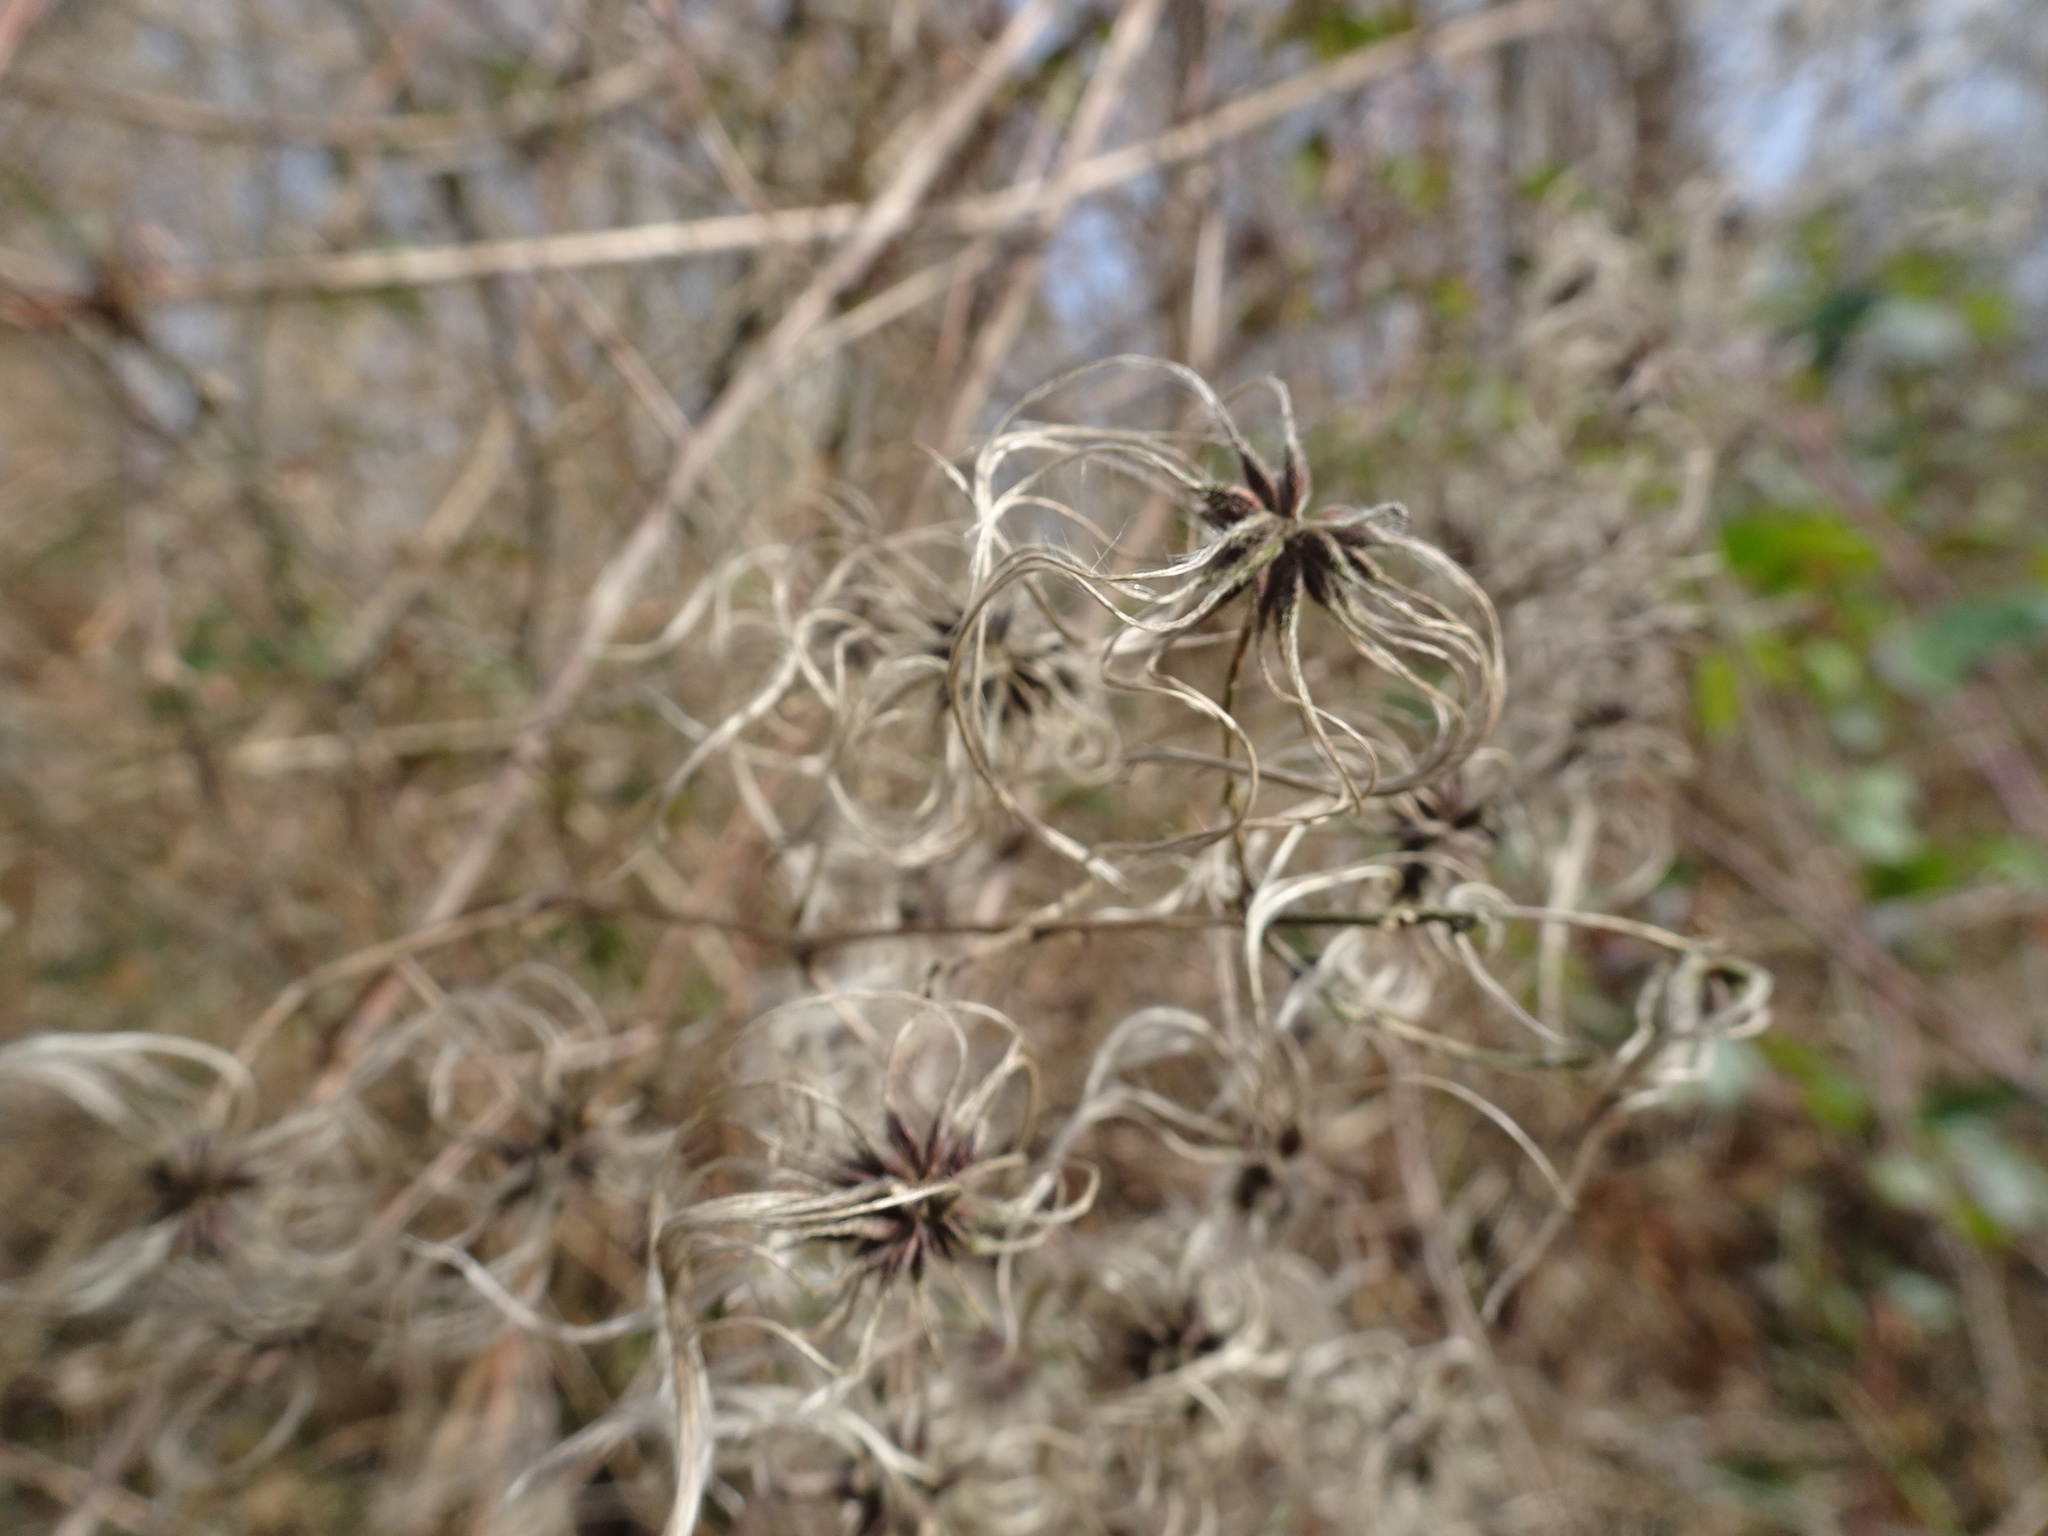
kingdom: Plantae
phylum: Tracheophyta
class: Magnoliopsida
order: Ranunculales
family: Ranunculaceae
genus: Clematis
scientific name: Clematis vitalba
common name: Evergreen clematis
